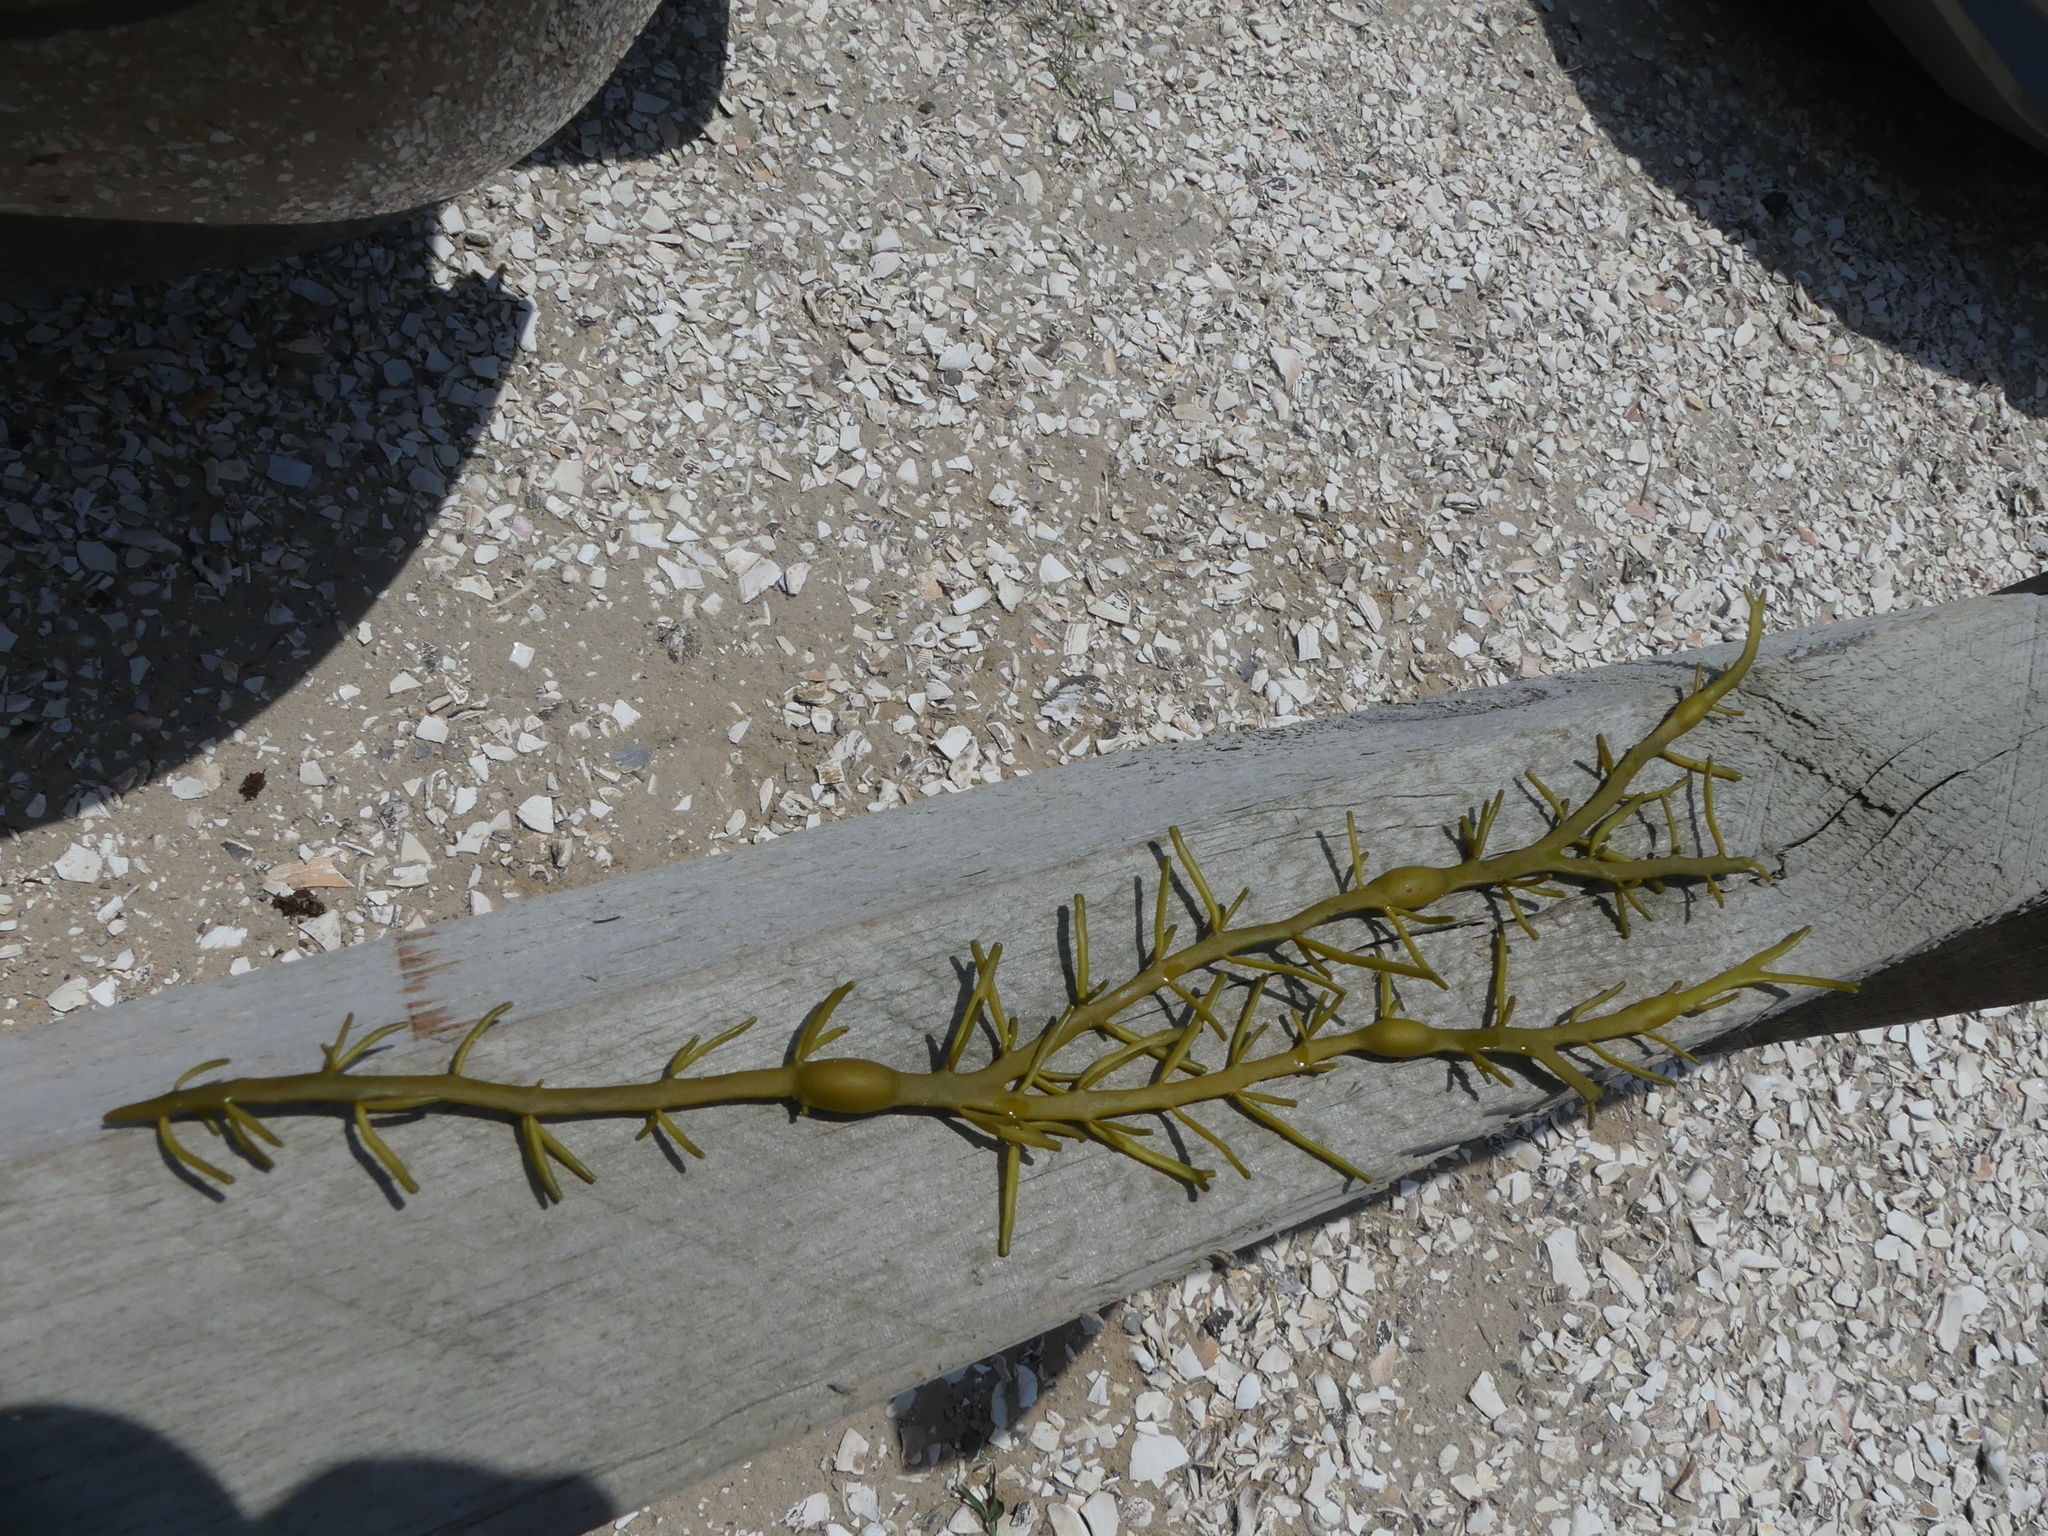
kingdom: Chromista
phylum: Ochrophyta
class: Phaeophyceae
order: Fucales
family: Fucaceae
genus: Ascophyllum
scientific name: Ascophyllum nodosum
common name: Knotted wrack
